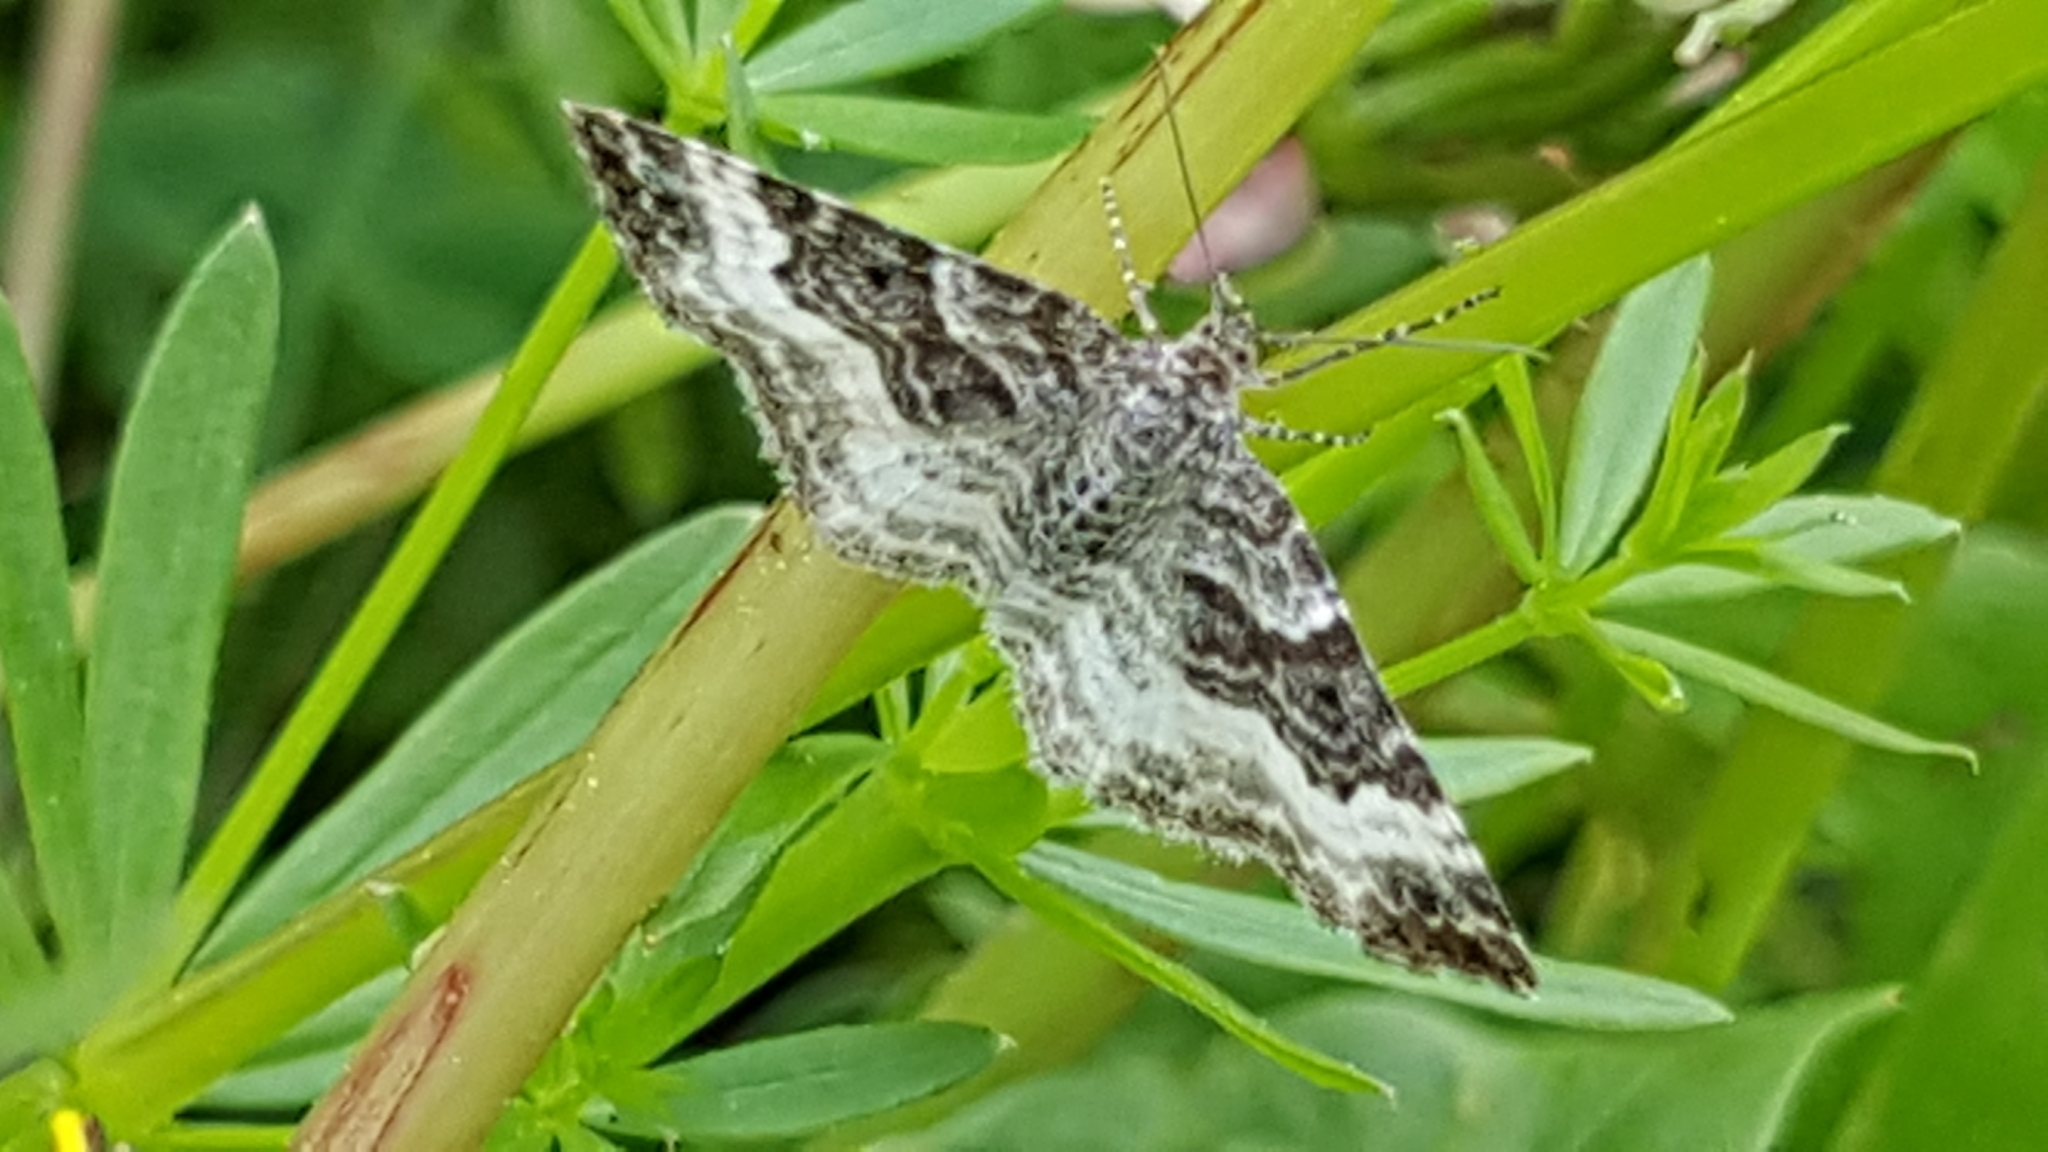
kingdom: Animalia
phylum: Arthropoda
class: Insecta
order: Lepidoptera
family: Geometridae
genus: Epirrhoe
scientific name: Epirrhoe alternata
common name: Common carpet
